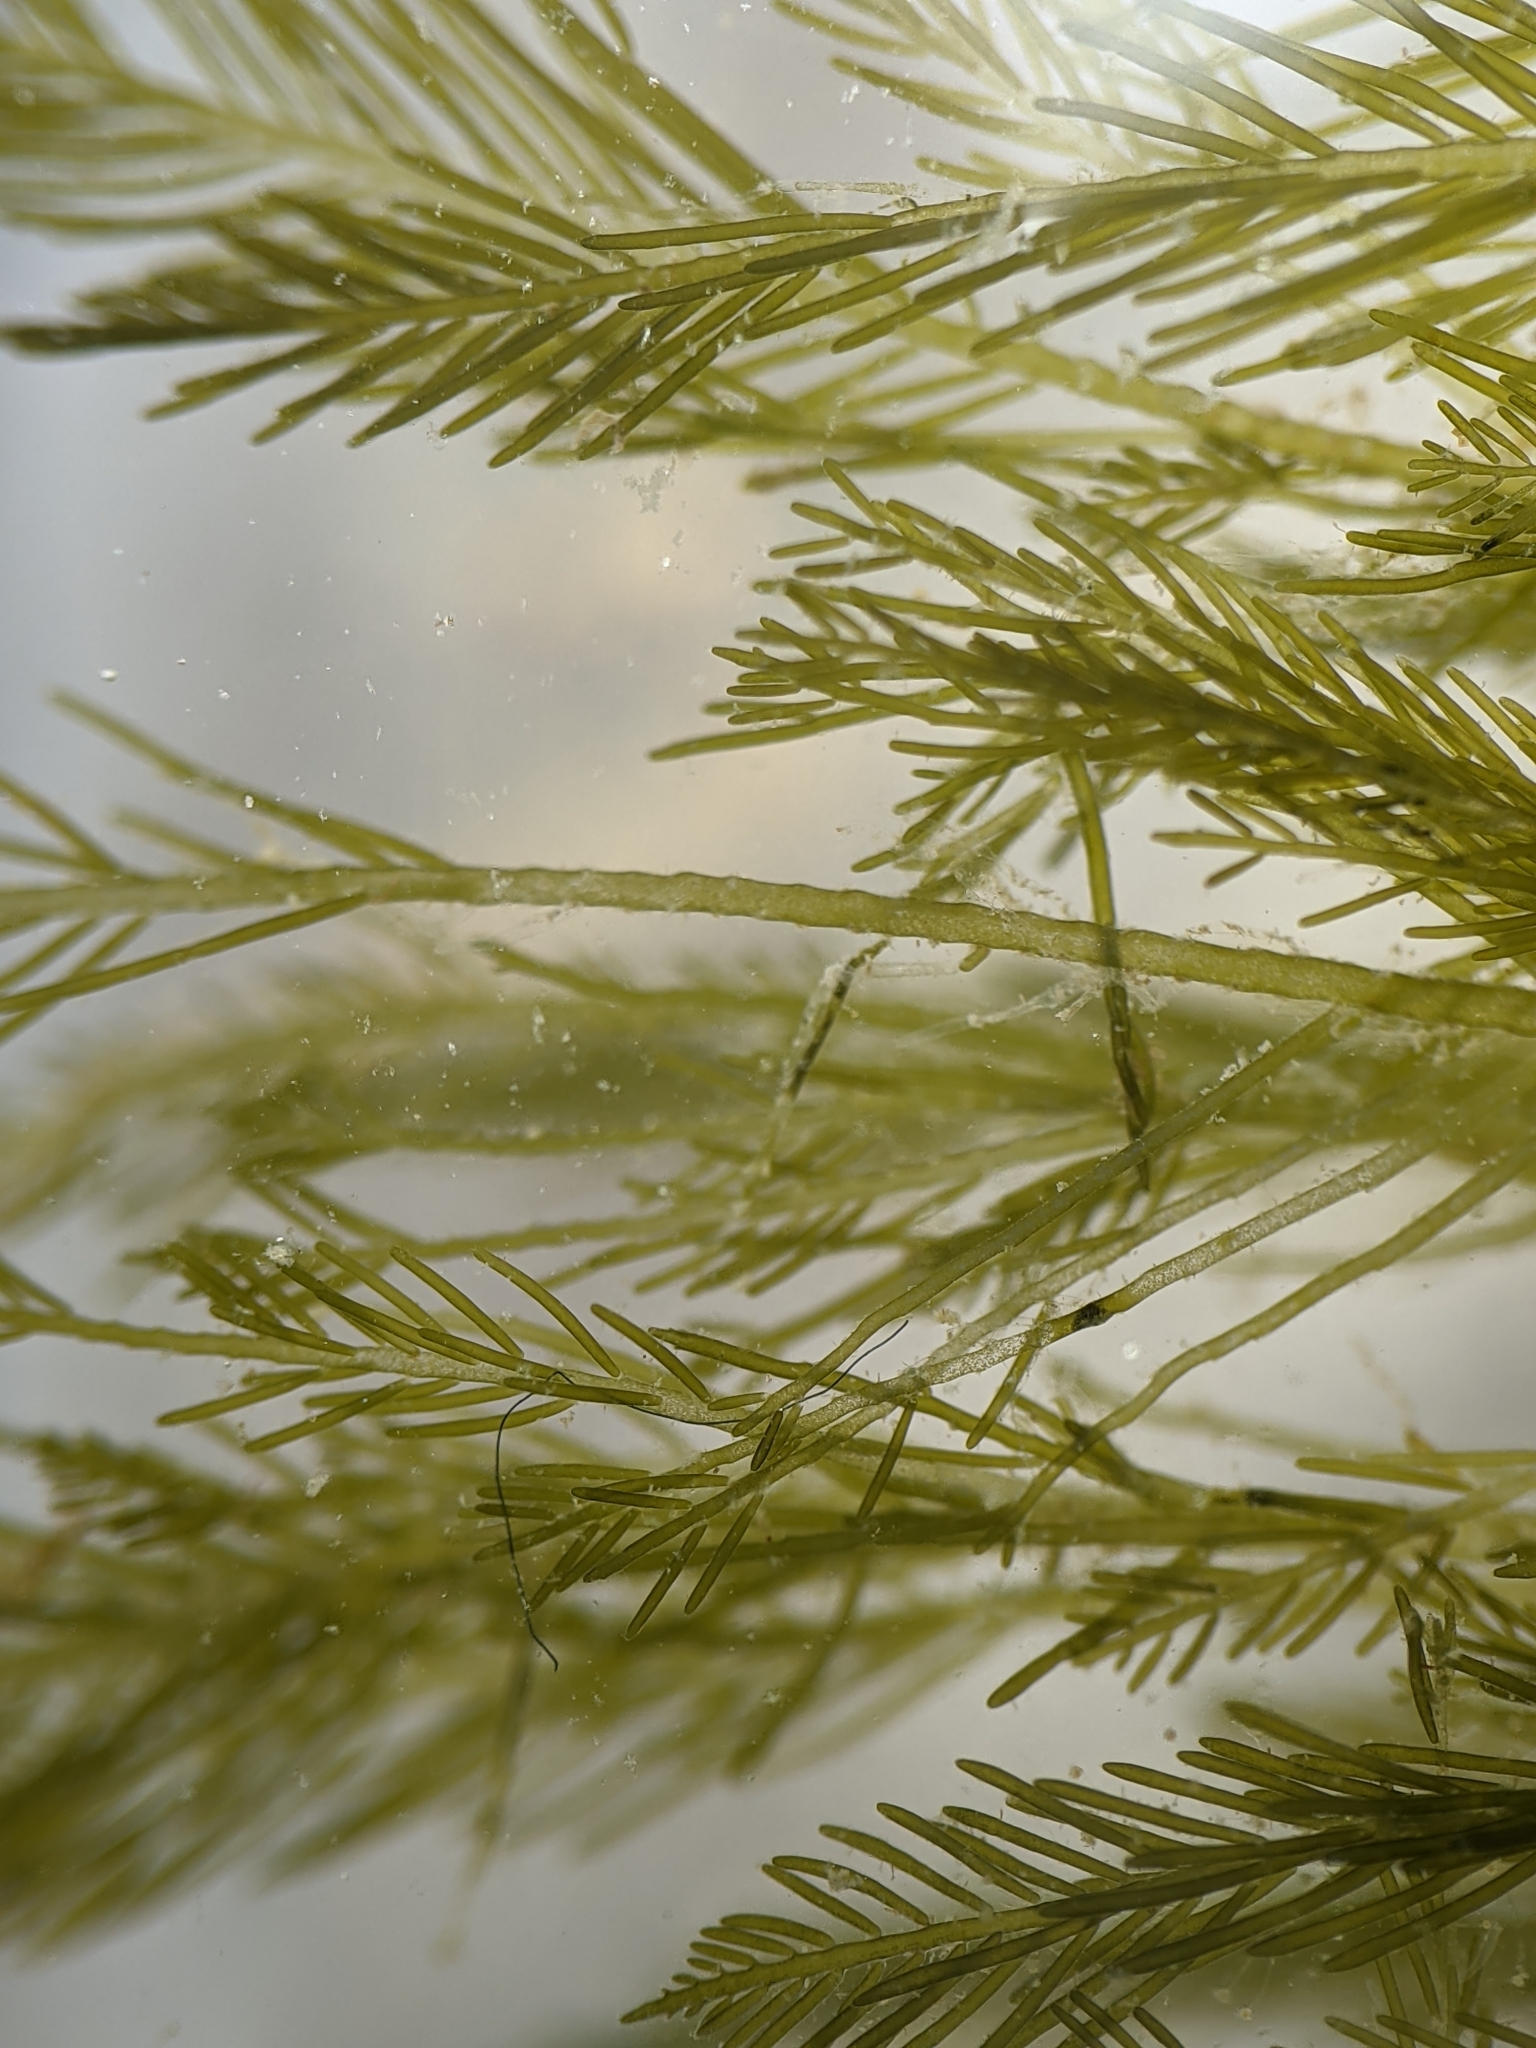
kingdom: Plantae
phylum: Chlorophyta
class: Ulvophyceae
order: Bryopsidales
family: Bryopsidaceae
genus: Bryopsis
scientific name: Bryopsis corticulans
